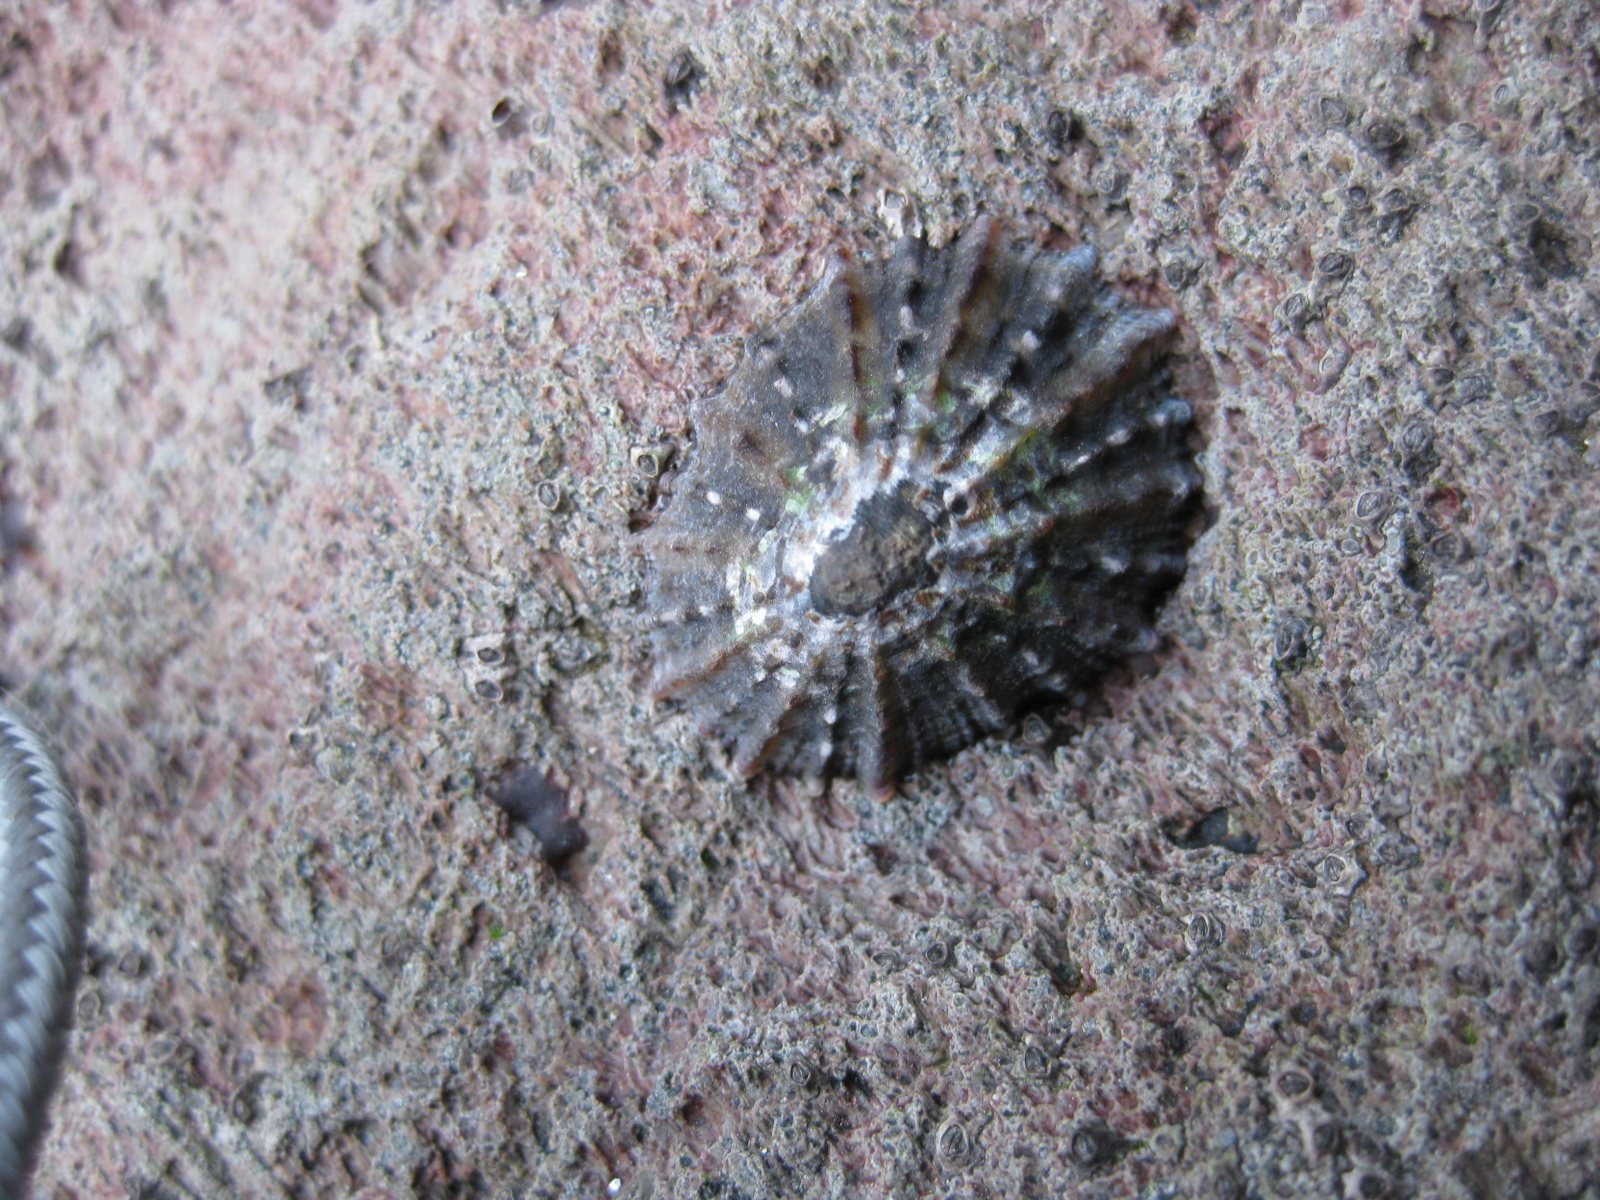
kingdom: Animalia
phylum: Mollusca
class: Gastropoda
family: Nacellidae
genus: Cellana
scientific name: Cellana ornata
